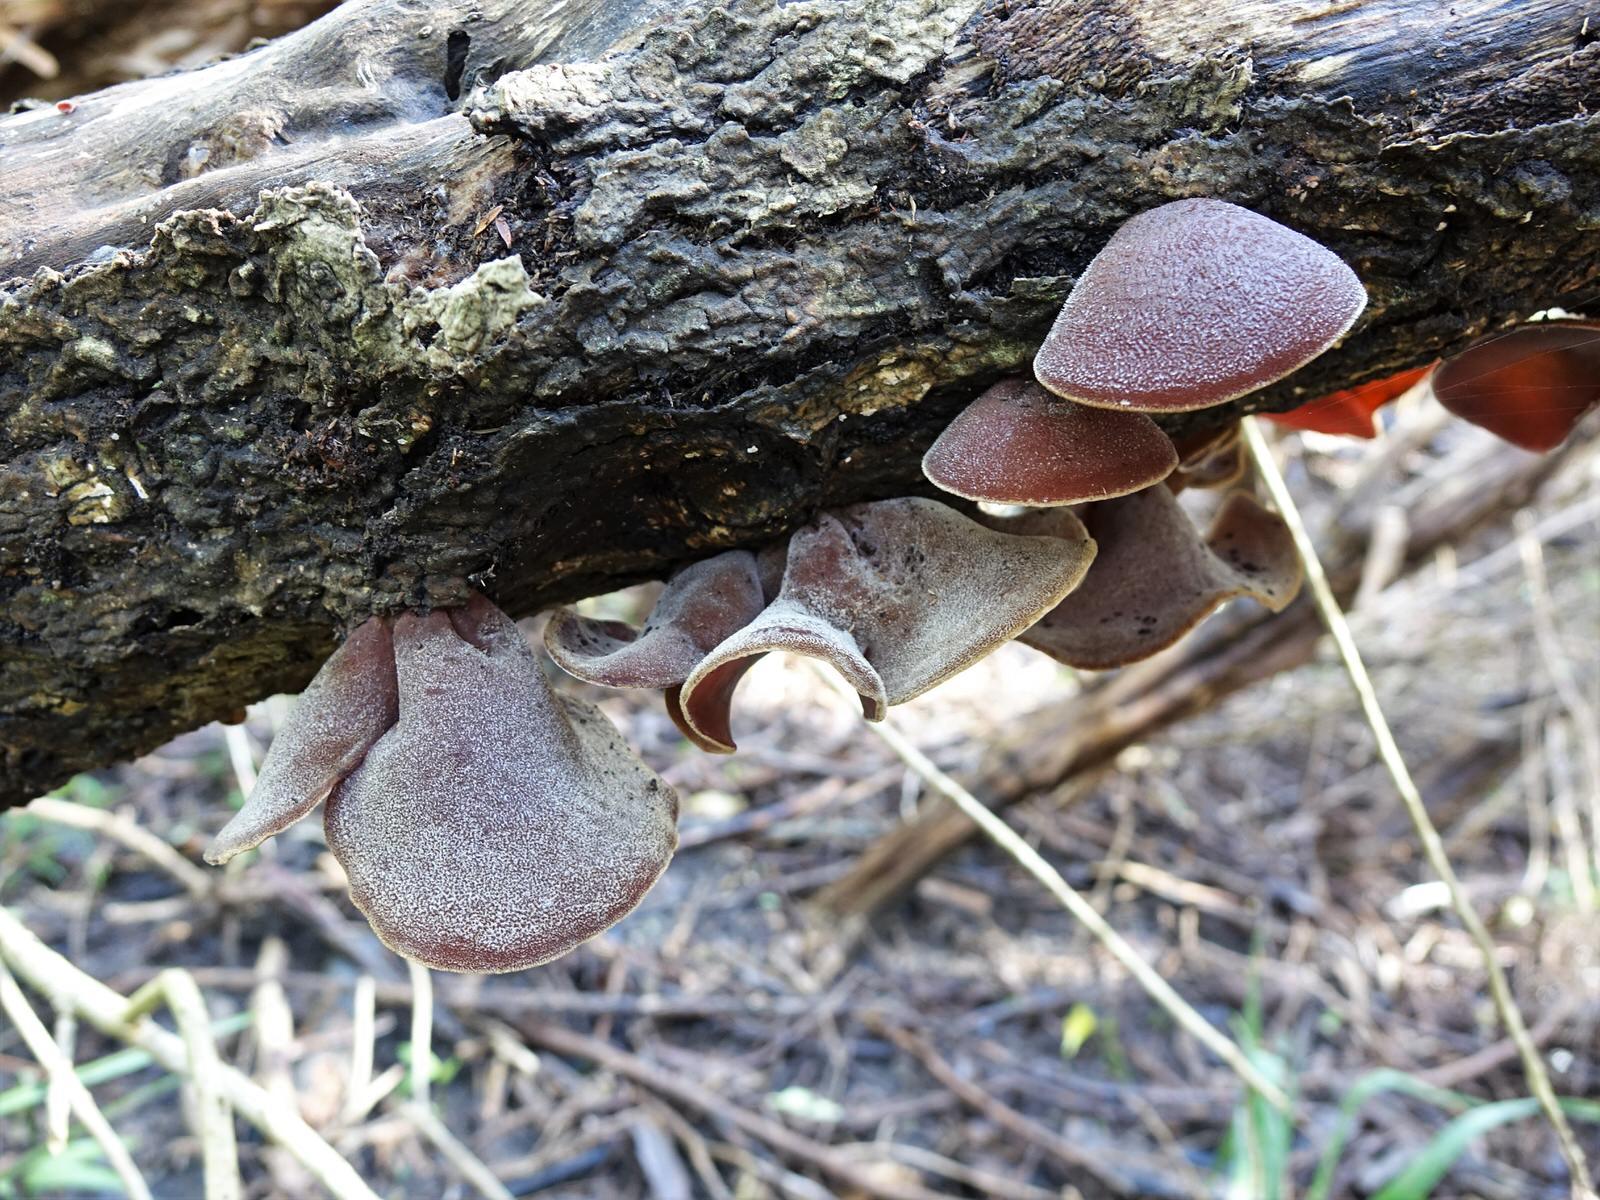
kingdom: Fungi
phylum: Basidiomycota
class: Agaricomycetes
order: Auriculariales
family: Auriculariaceae
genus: Auricularia
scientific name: Auricularia cornea
